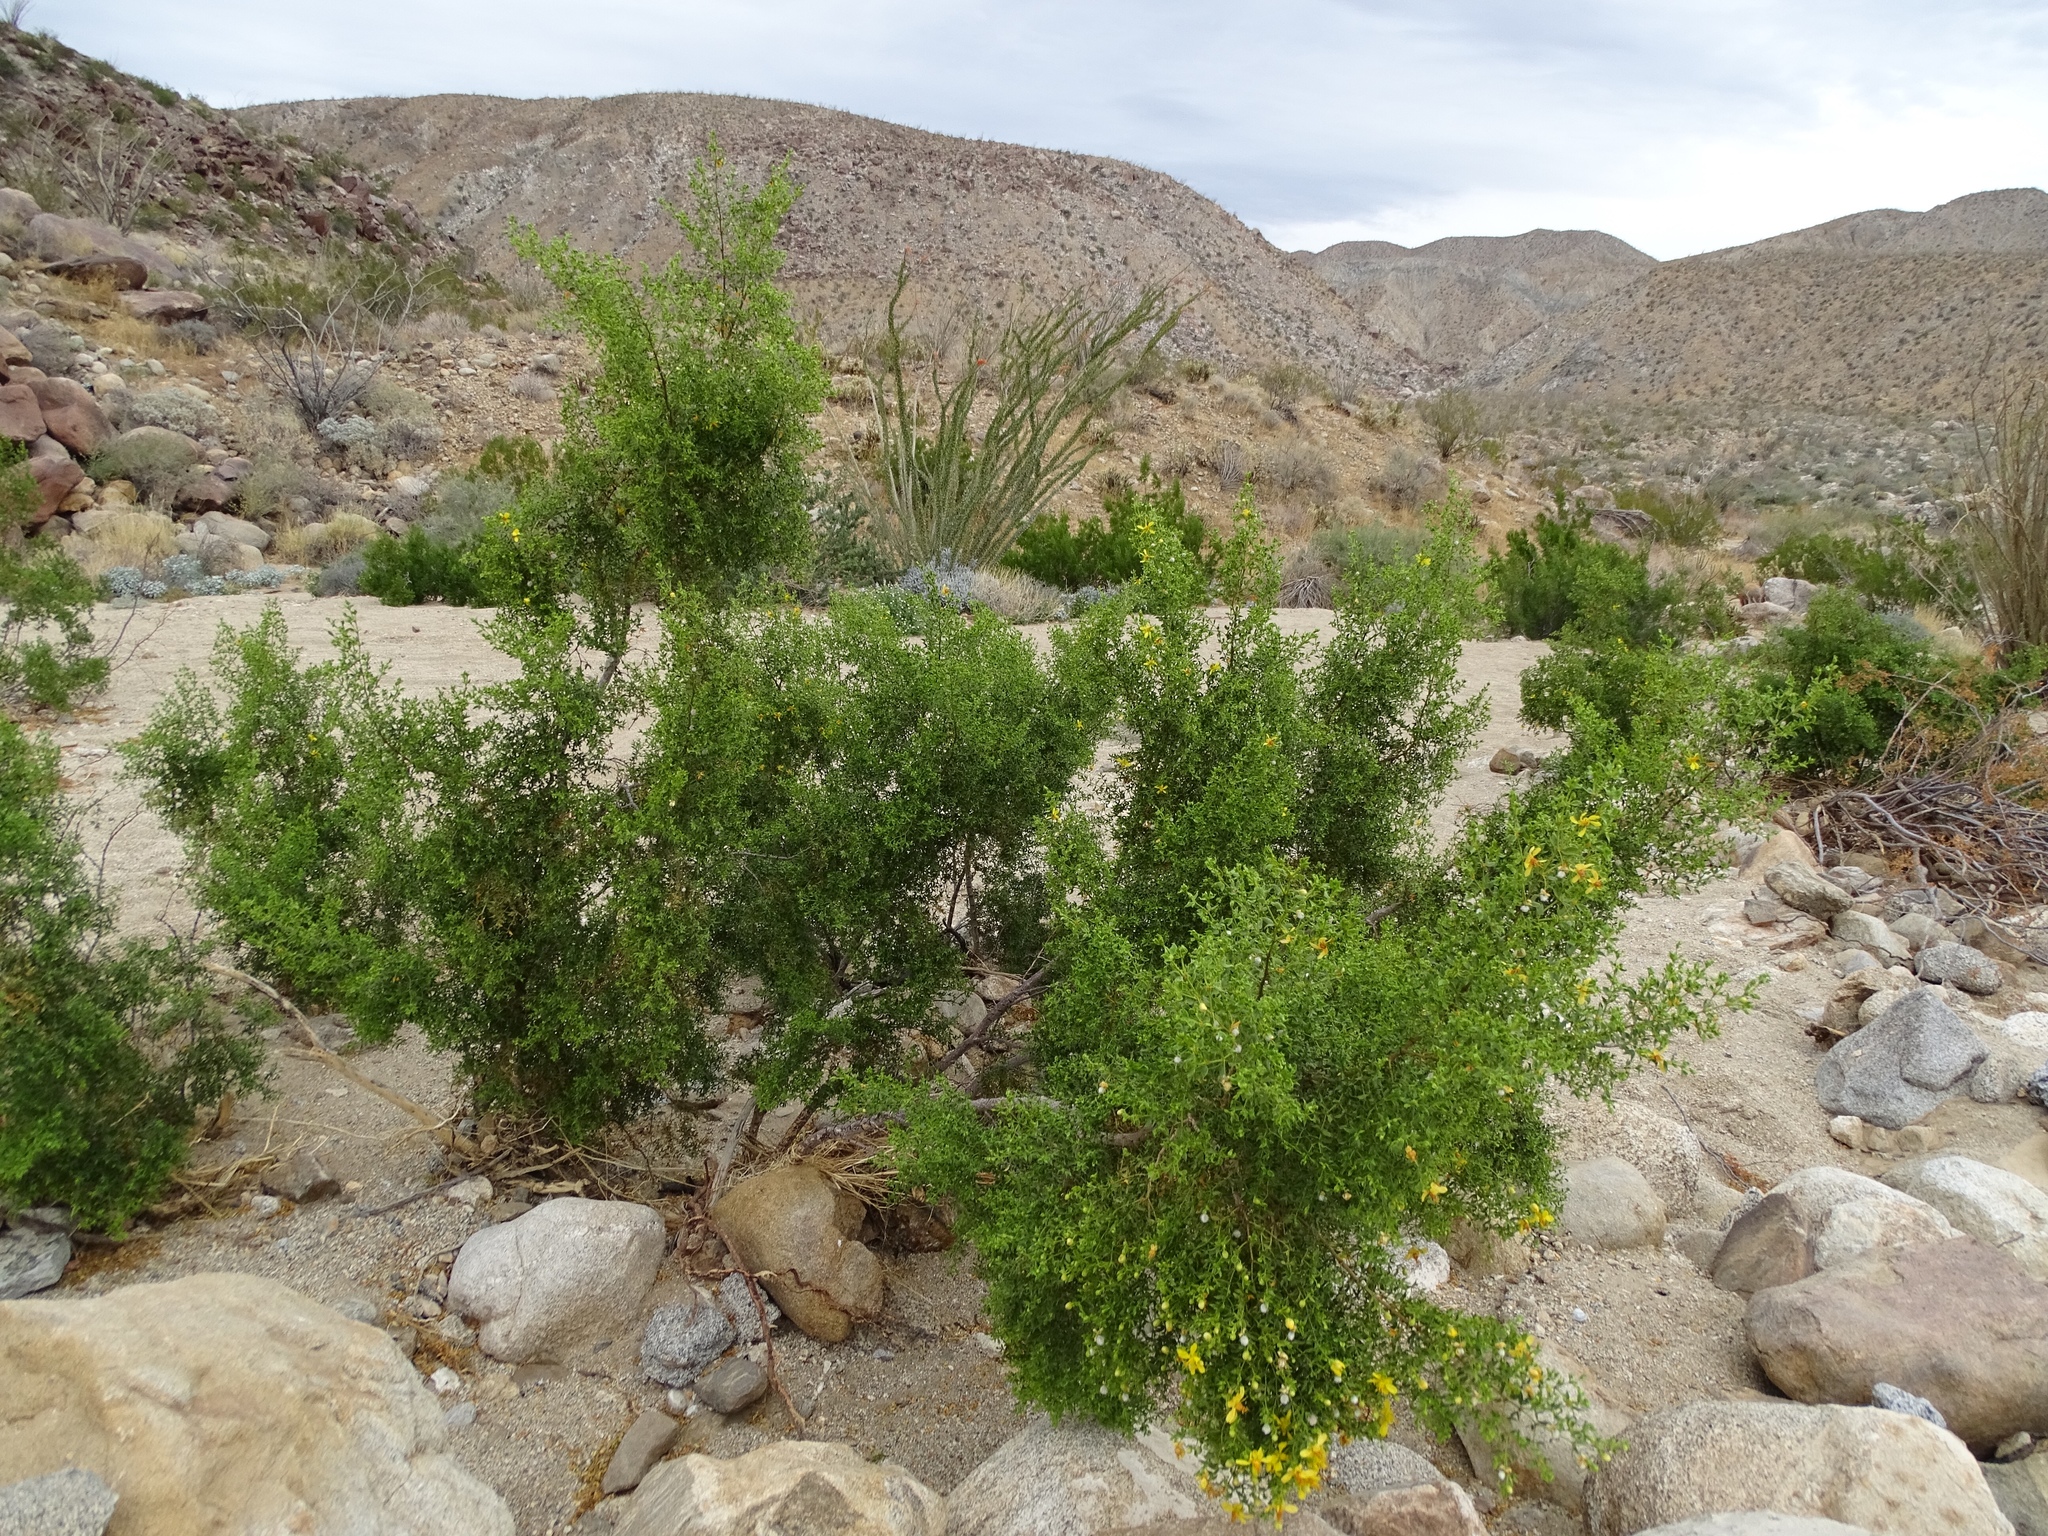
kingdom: Plantae
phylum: Tracheophyta
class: Magnoliopsida
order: Zygophyllales
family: Zygophyllaceae
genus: Larrea
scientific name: Larrea tridentata
